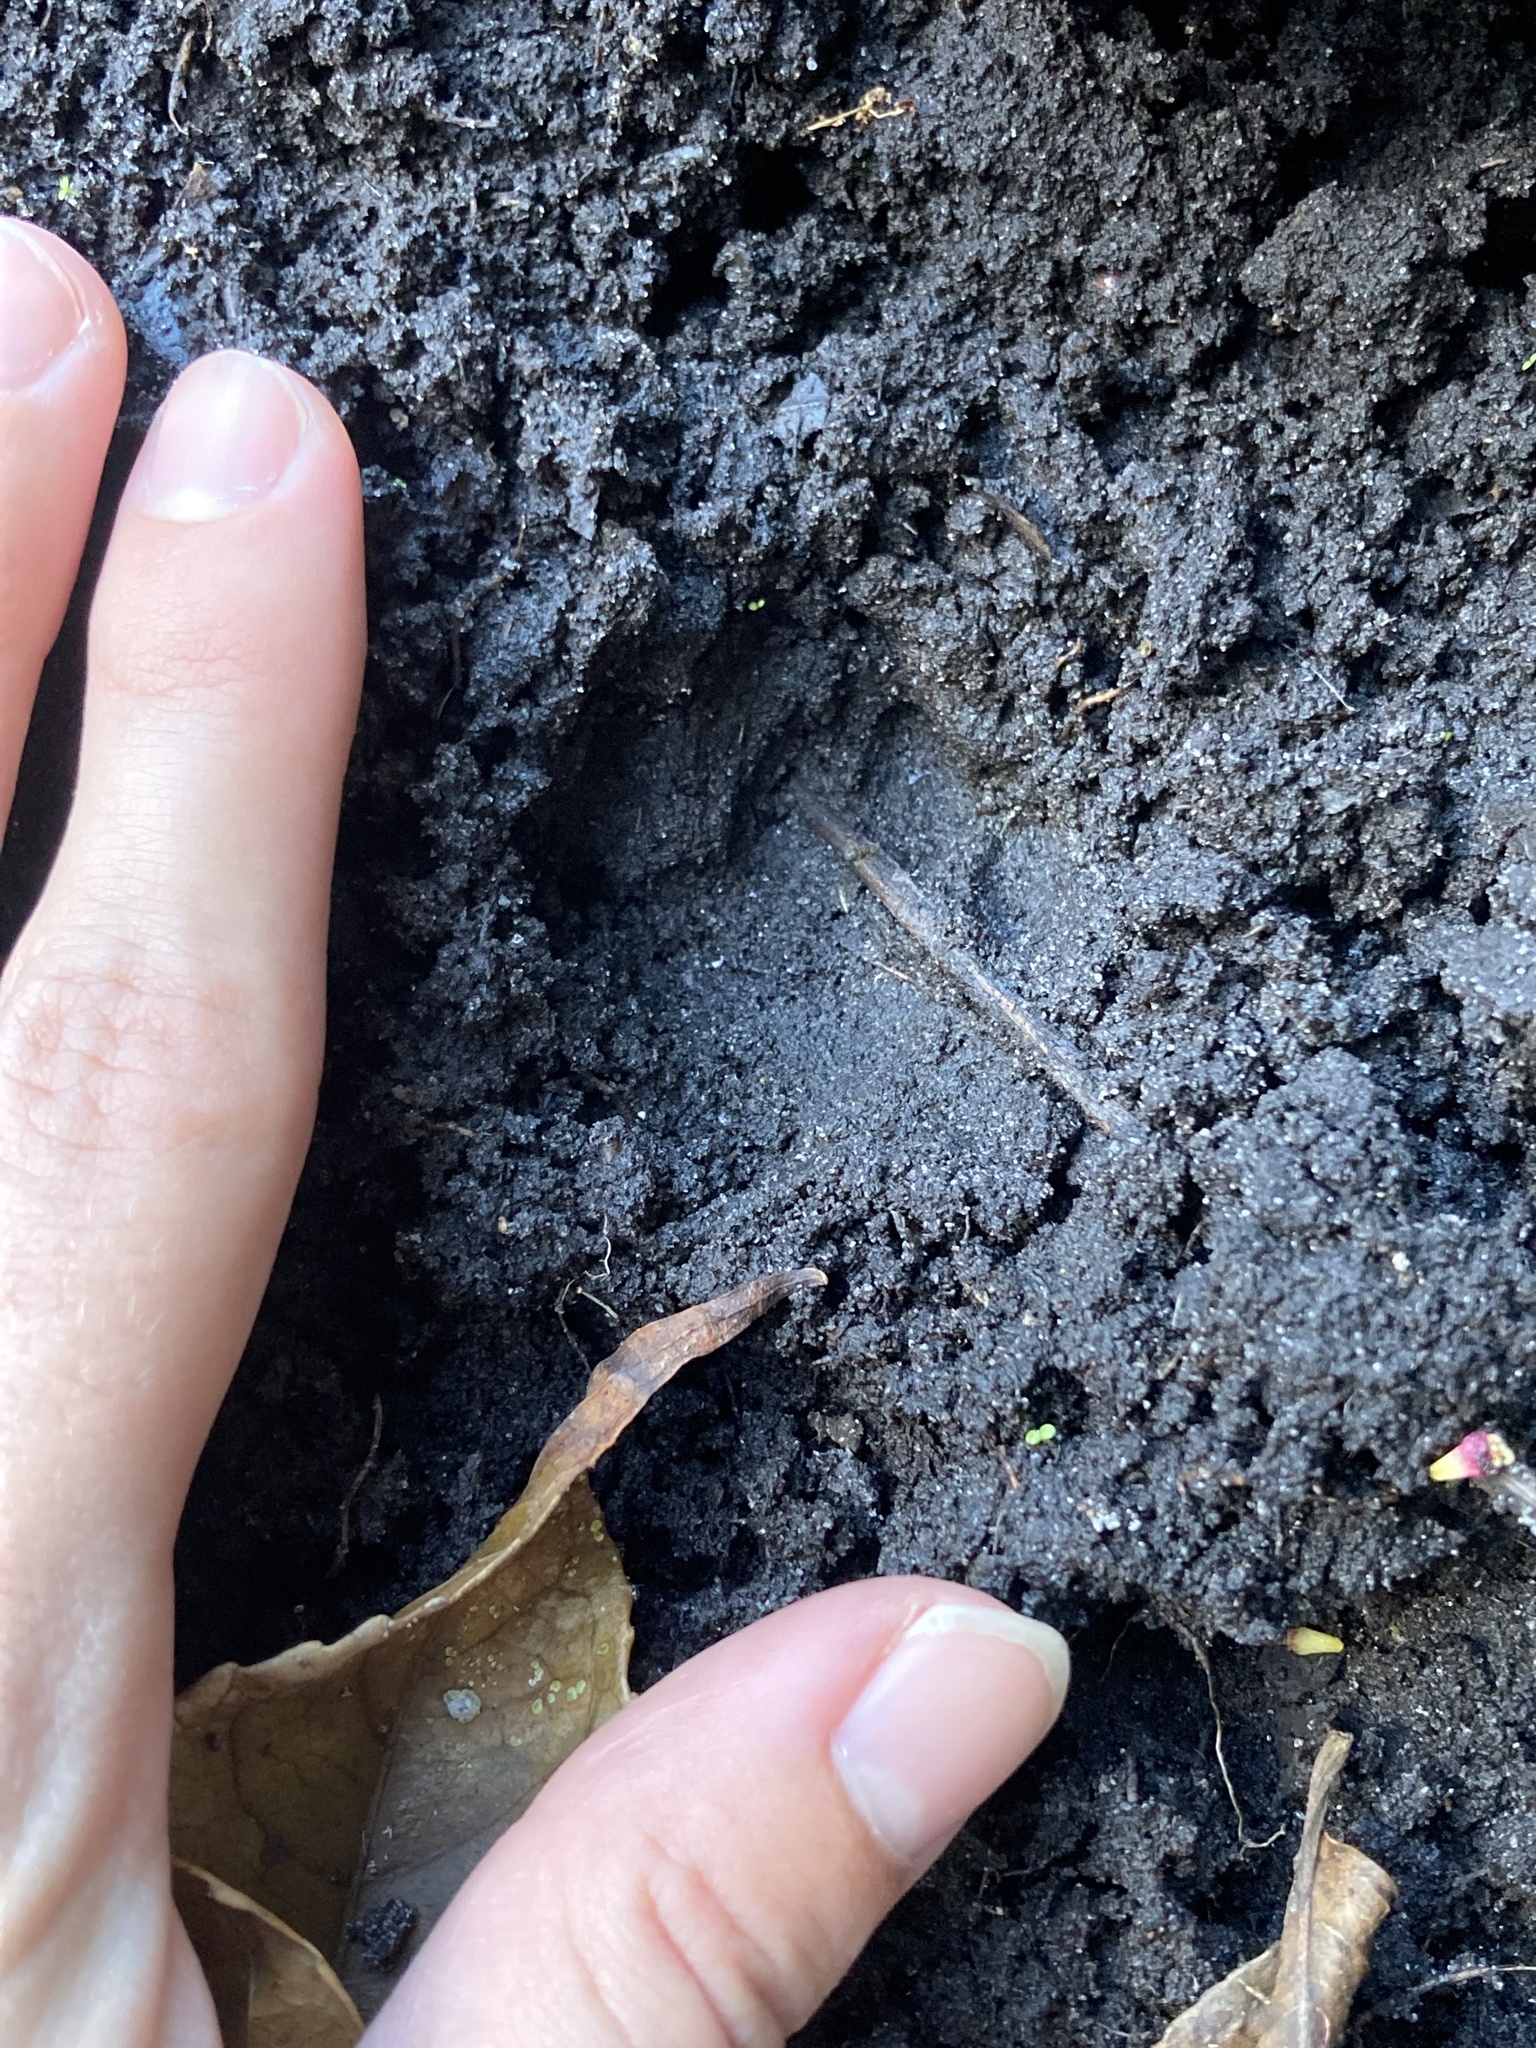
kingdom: Animalia
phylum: Chordata
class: Mammalia
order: Carnivora
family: Felidae
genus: Felis
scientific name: Felis catus
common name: Domestic cat
